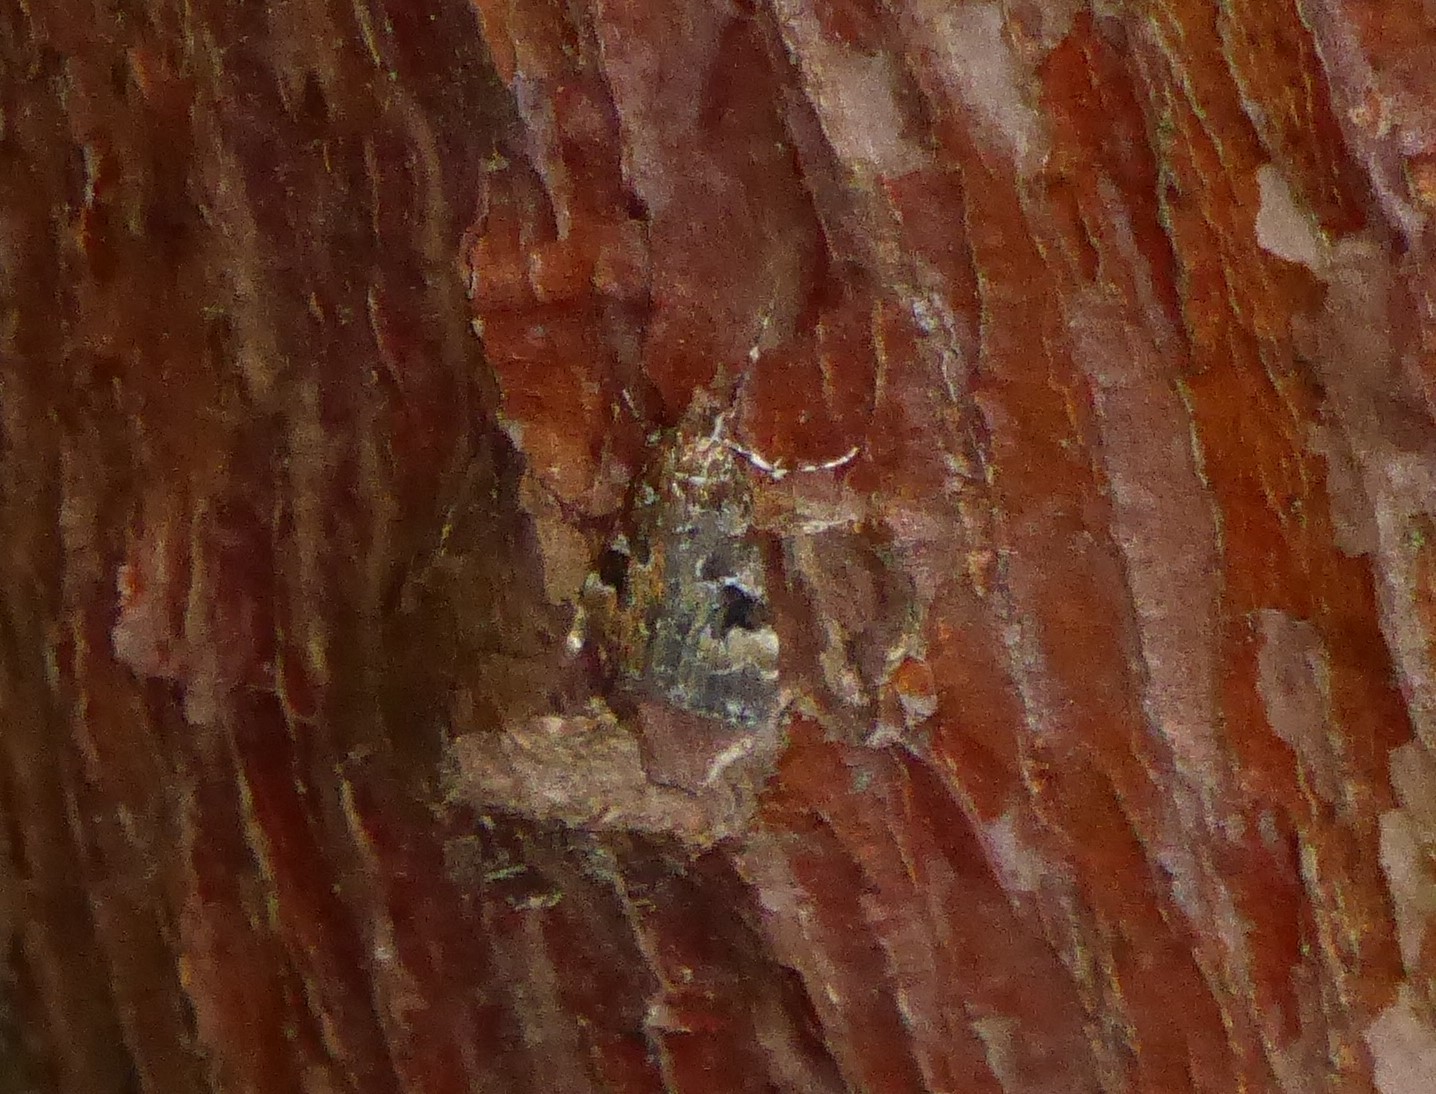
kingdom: Animalia
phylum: Arthropoda
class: Insecta
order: Lepidoptera
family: Crambidae
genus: Scoparia
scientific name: Scoparia ustimacula
